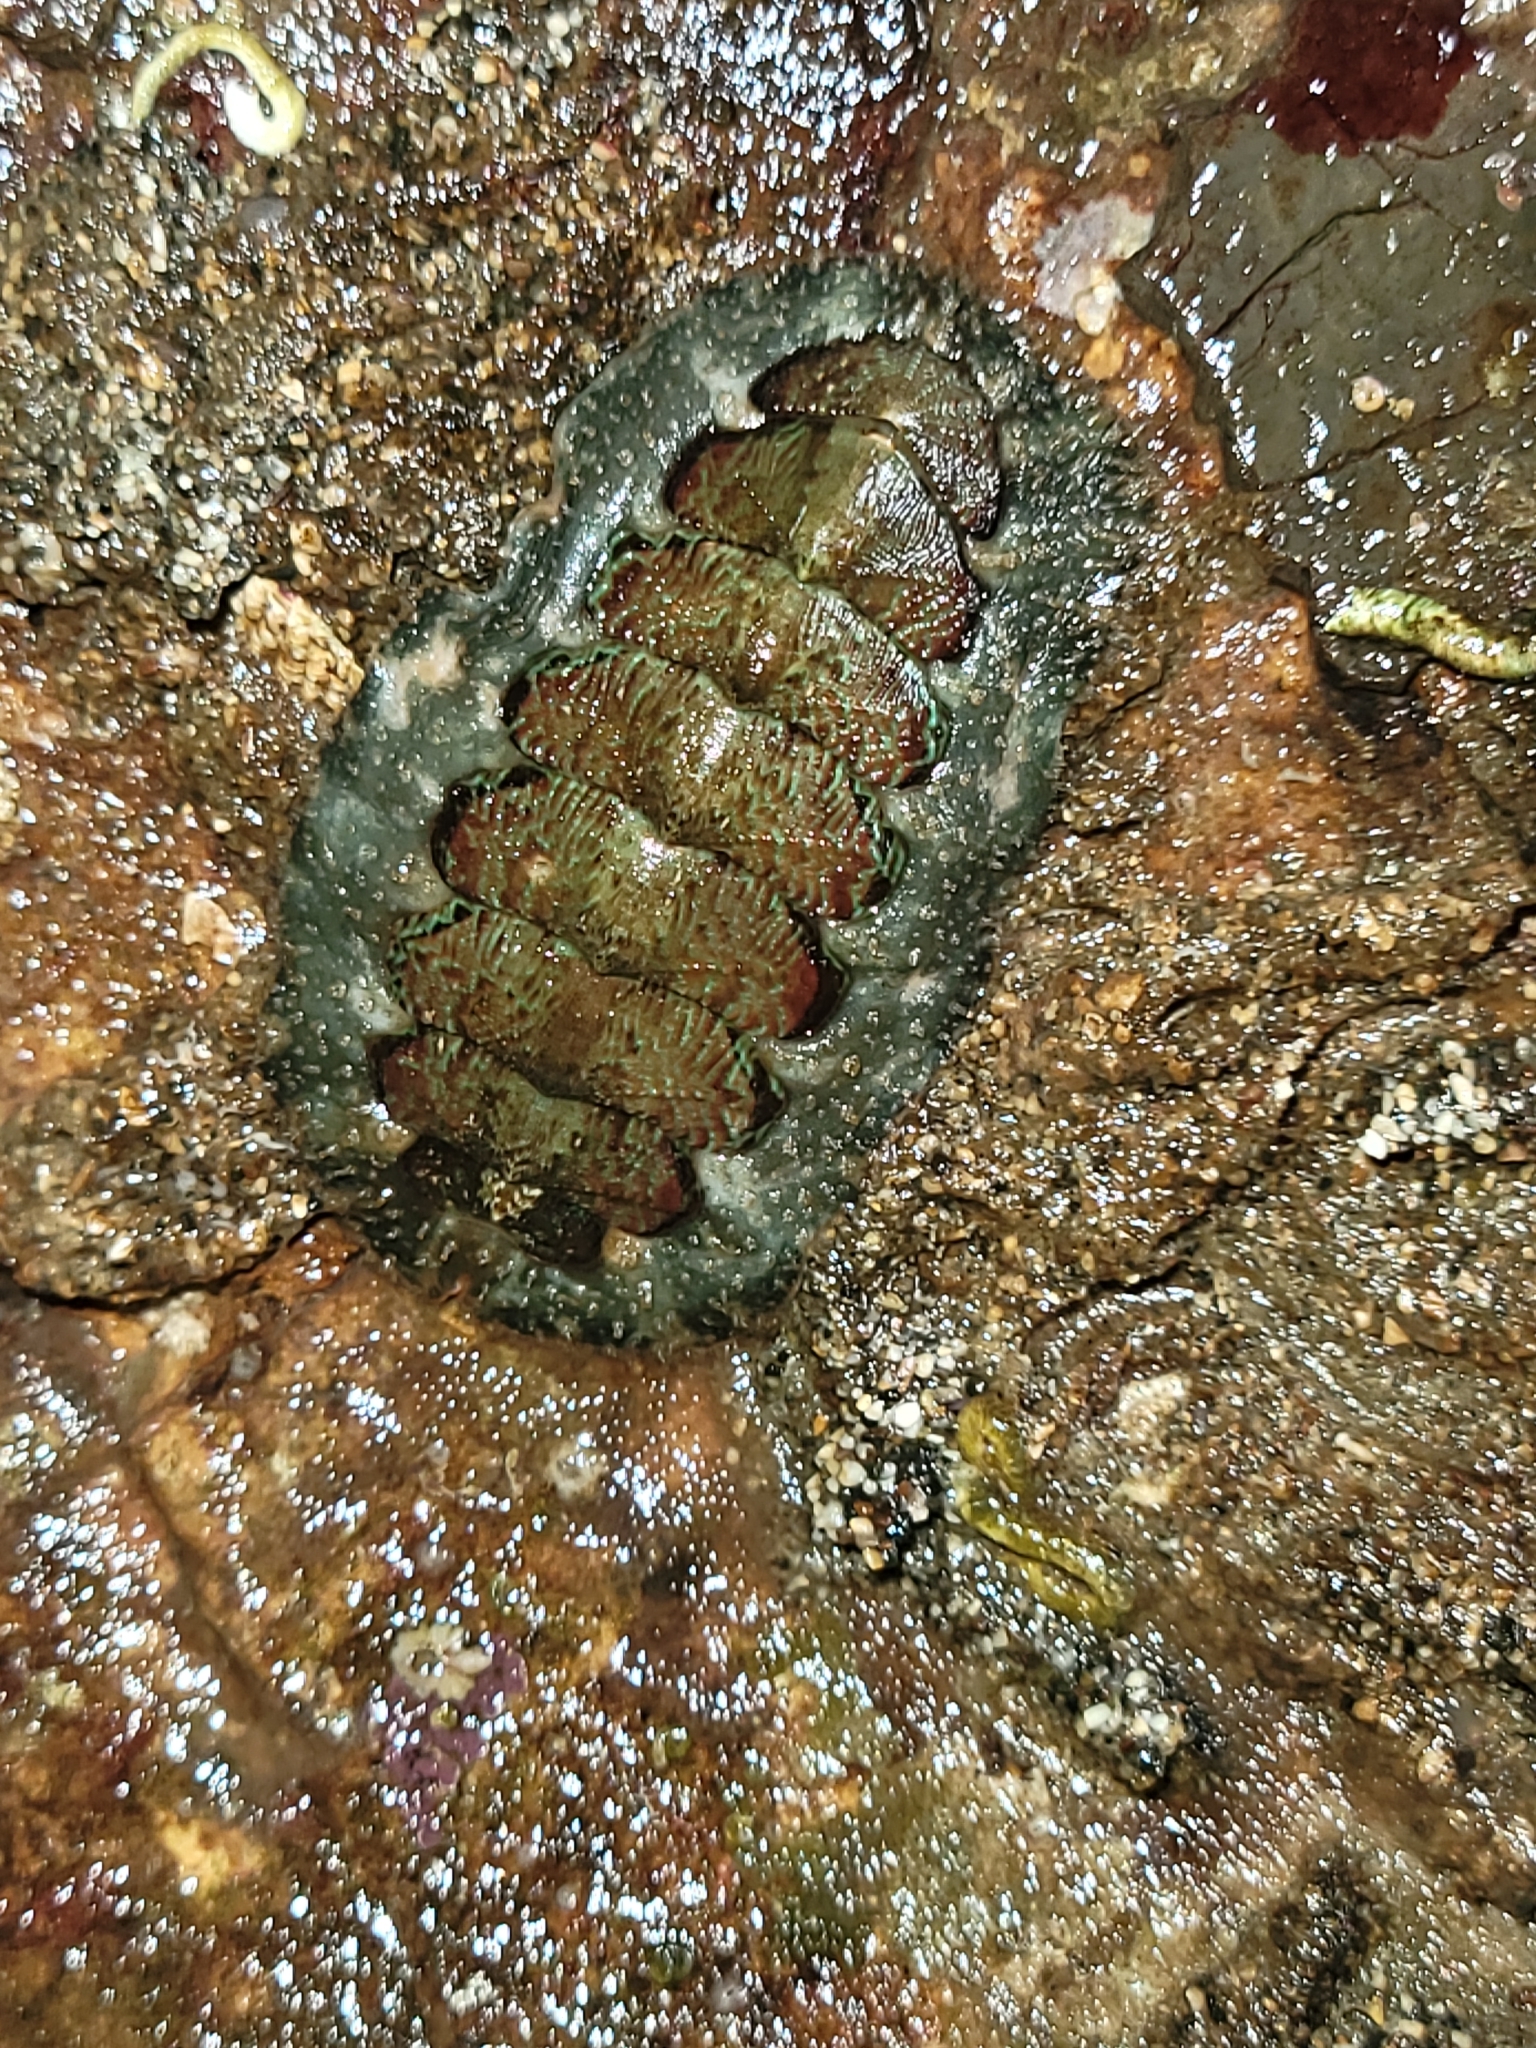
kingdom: Animalia
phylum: Mollusca
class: Polyplacophora
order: Chitonida
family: Mopaliidae
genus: Mopalia
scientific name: Mopalia ciliata
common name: Hairy chiton
